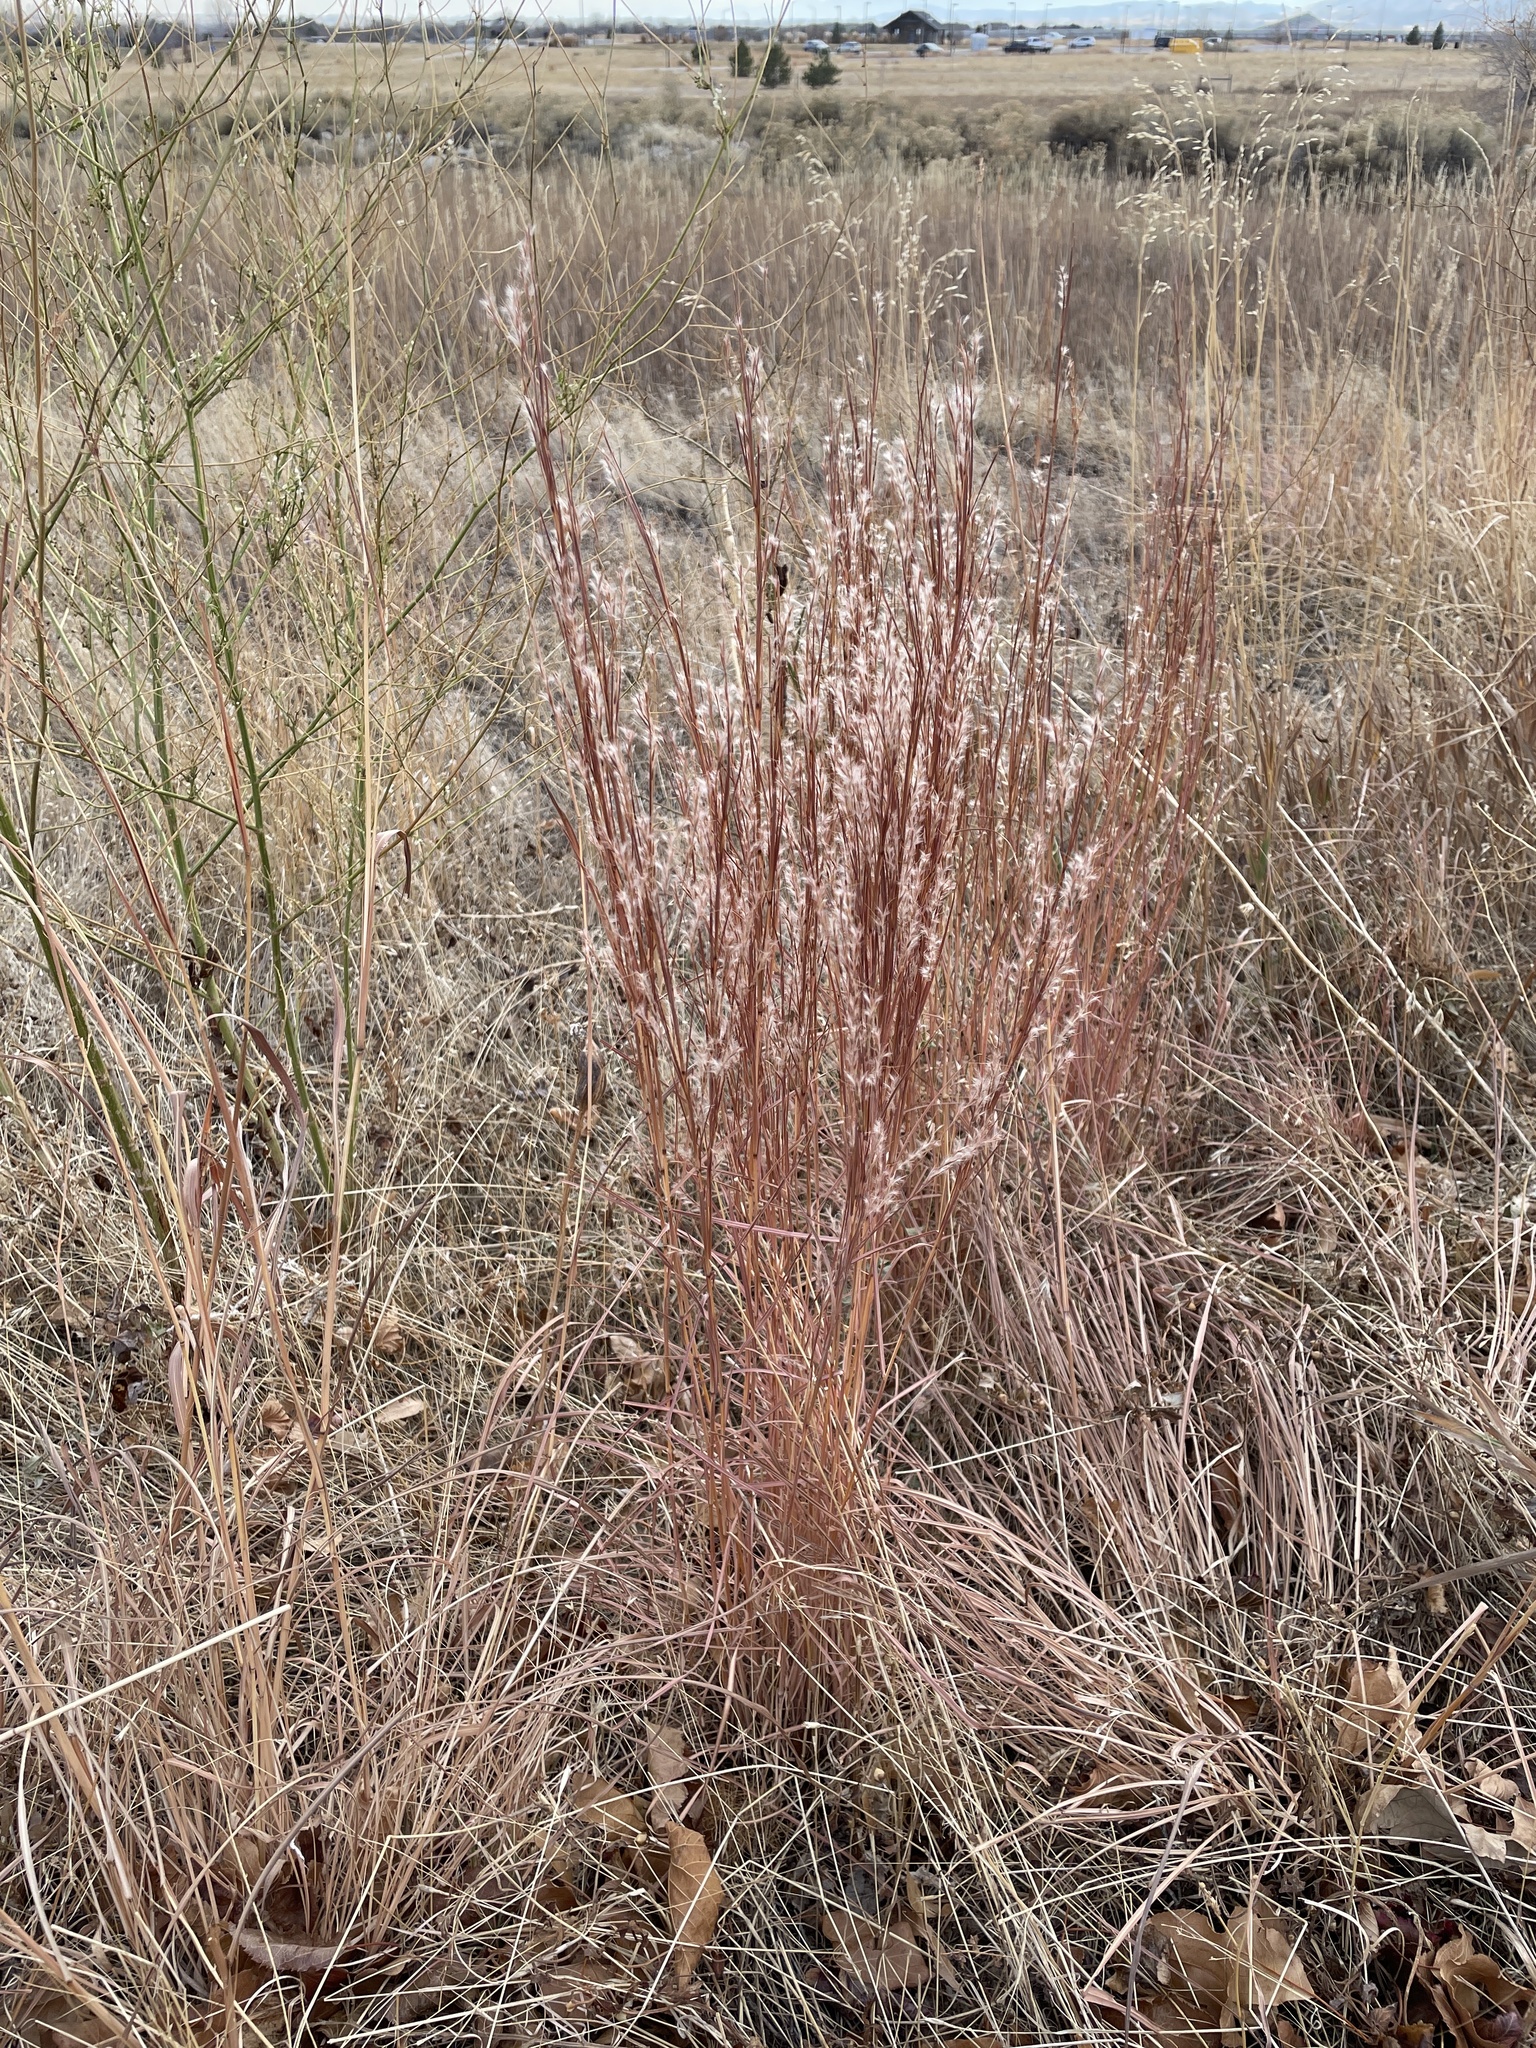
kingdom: Plantae
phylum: Tracheophyta
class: Liliopsida
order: Poales
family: Poaceae
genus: Schizachyrium
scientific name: Schizachyrium scoparium
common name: Little bluestem
